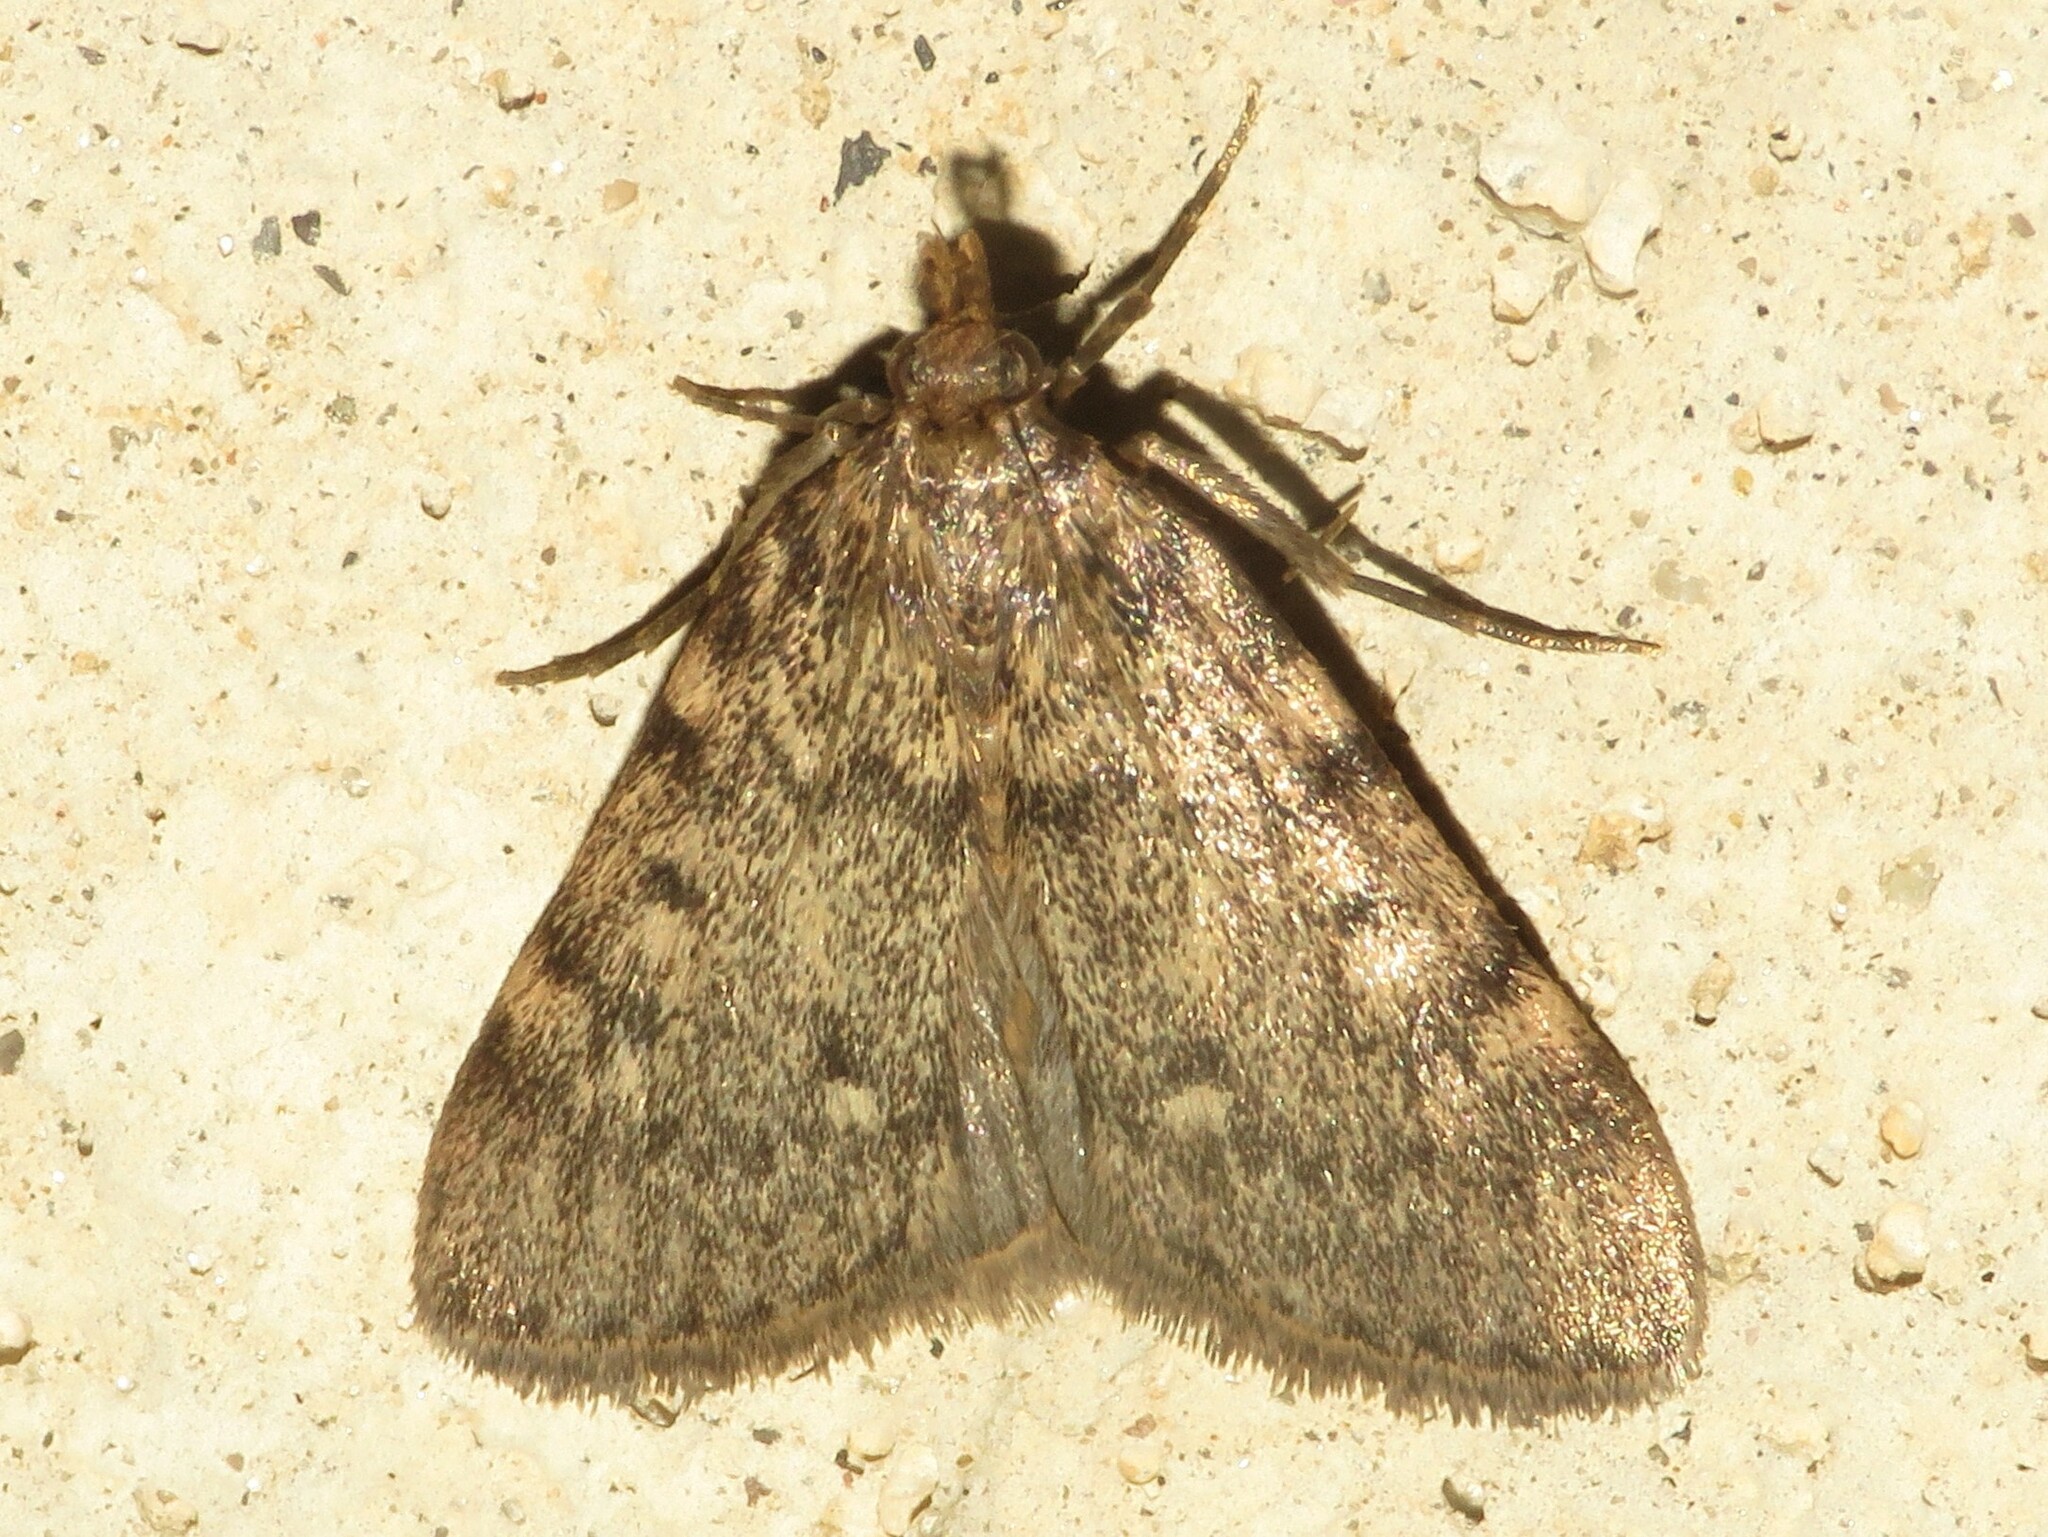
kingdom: Animalia
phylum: Arthropoda
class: Insecta
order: Lepidoptera
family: Pyralidae
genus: Aglossa
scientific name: Aglossa pinguinalis
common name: Large tabby
